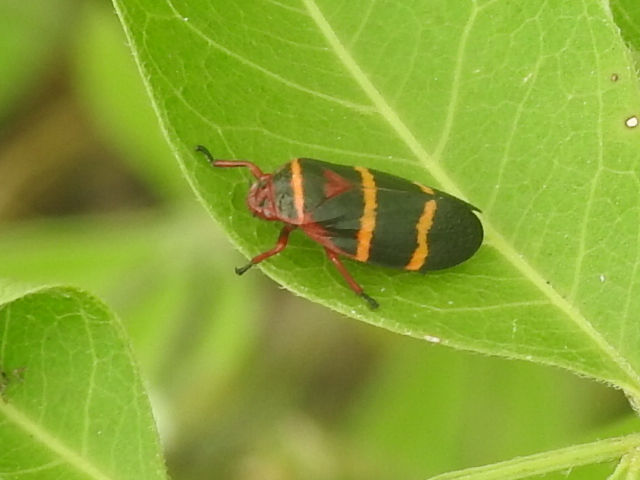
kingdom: Animalia
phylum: Arthropoda
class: Insecta
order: Hemiptera
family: Cercopidae
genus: Prosapia
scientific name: Prosapia bicincta
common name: Twolined spittlebug
